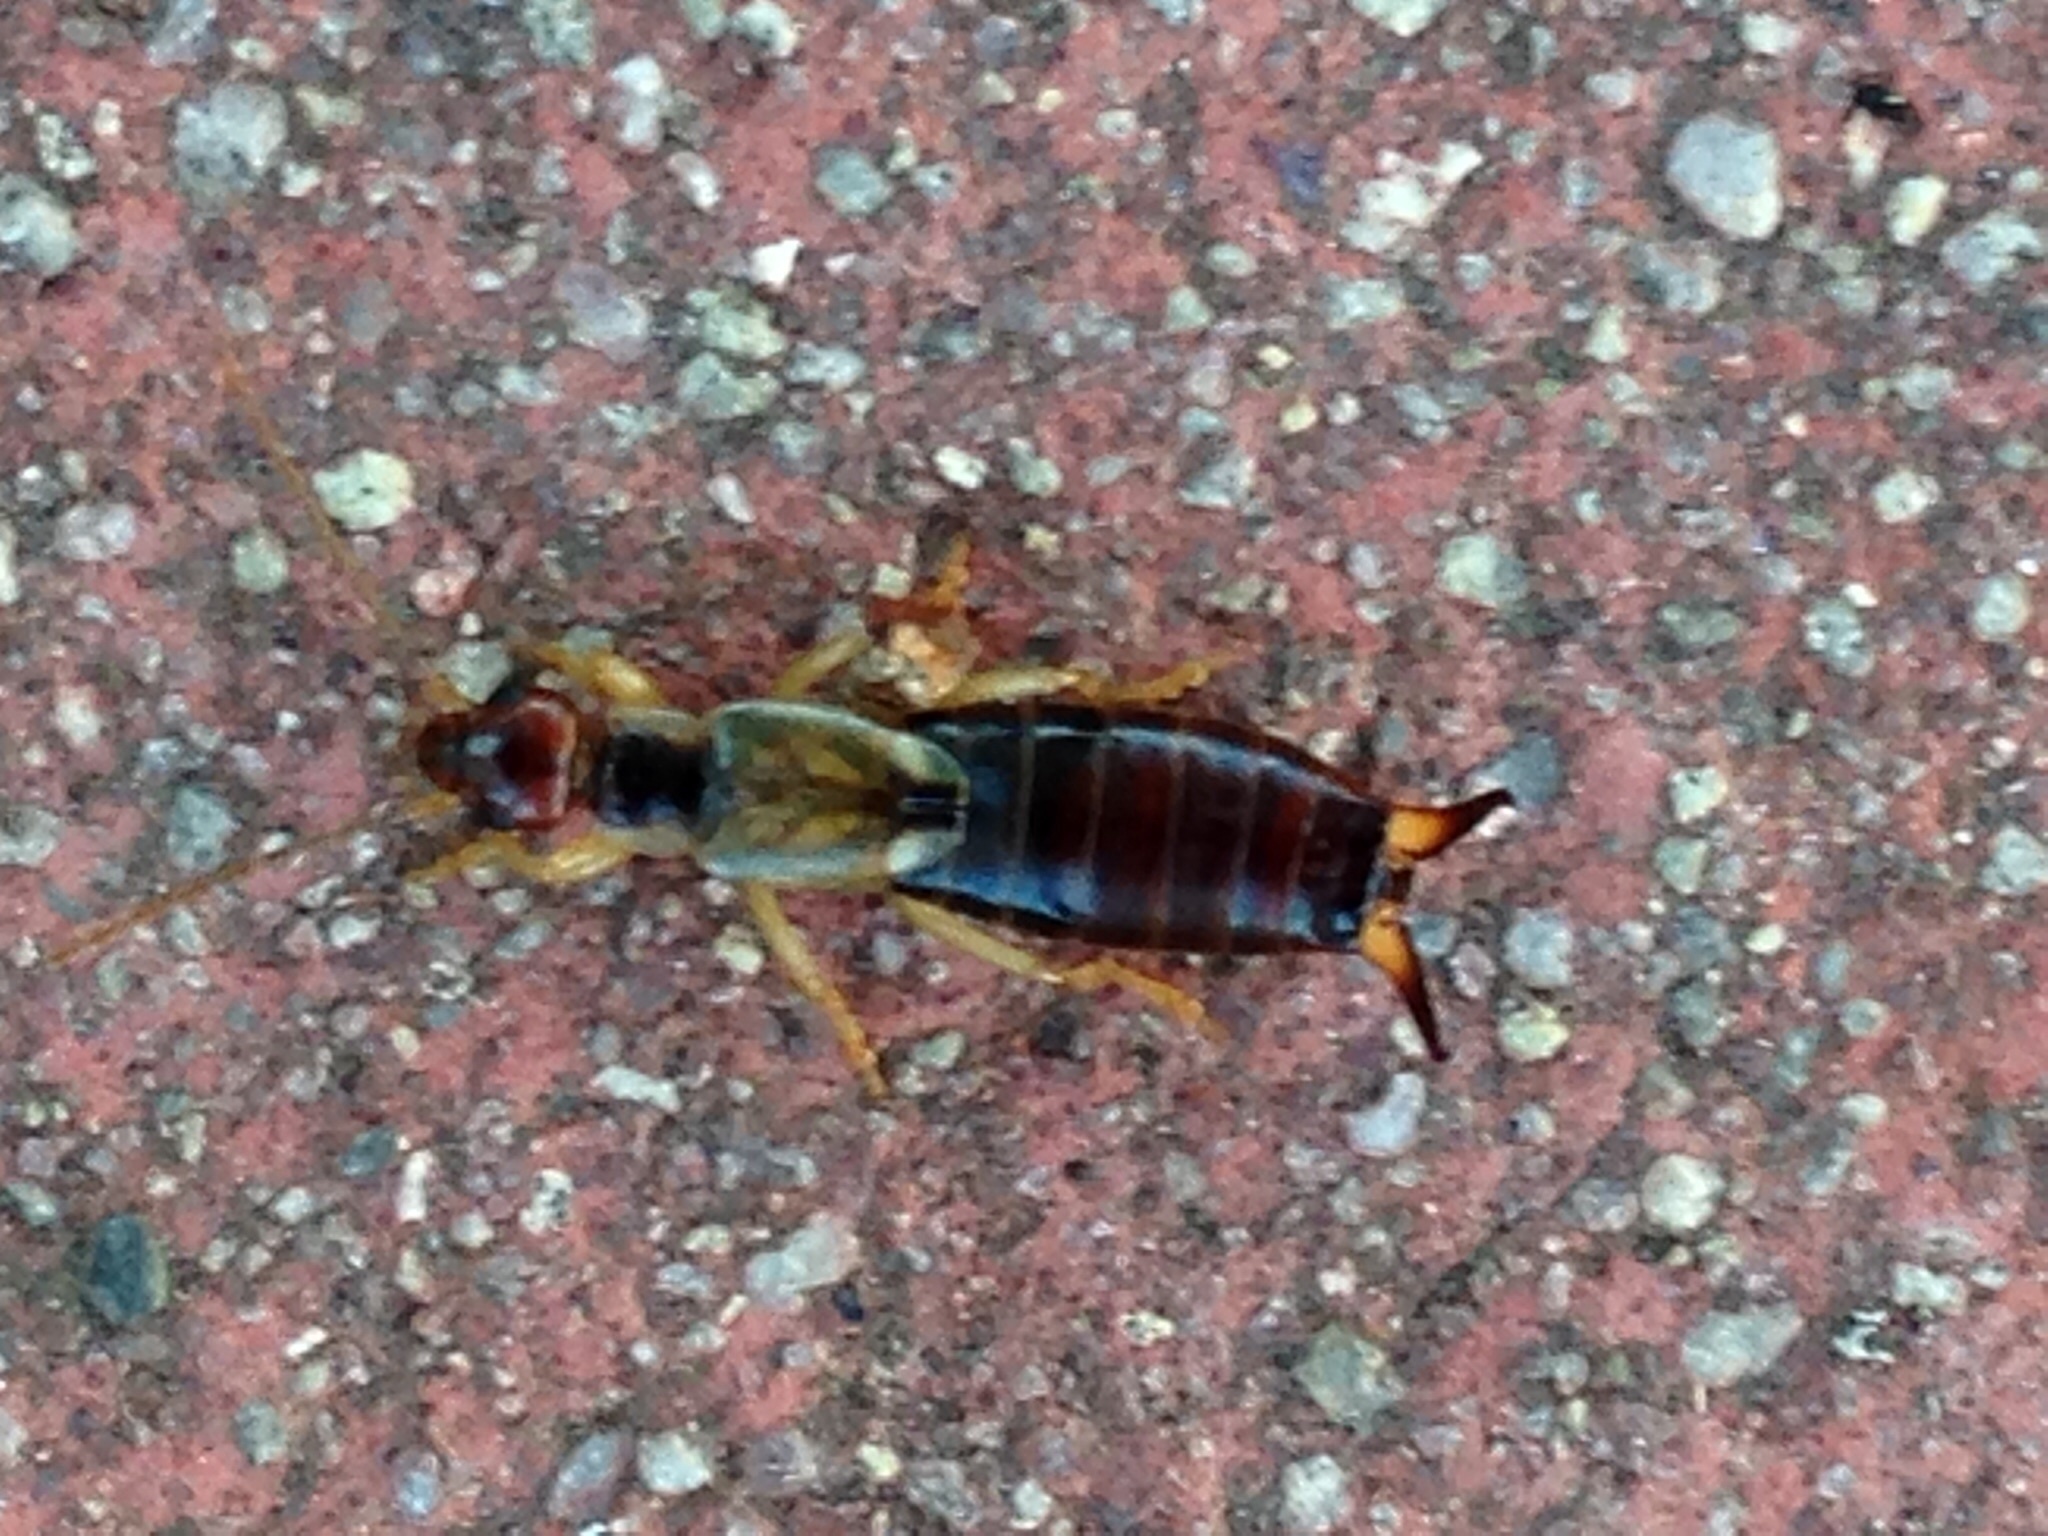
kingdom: Animalia
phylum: Arthropoda
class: Insecta
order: Dermaptera
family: Forficulidae
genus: Forficula
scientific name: Forficula dentata
